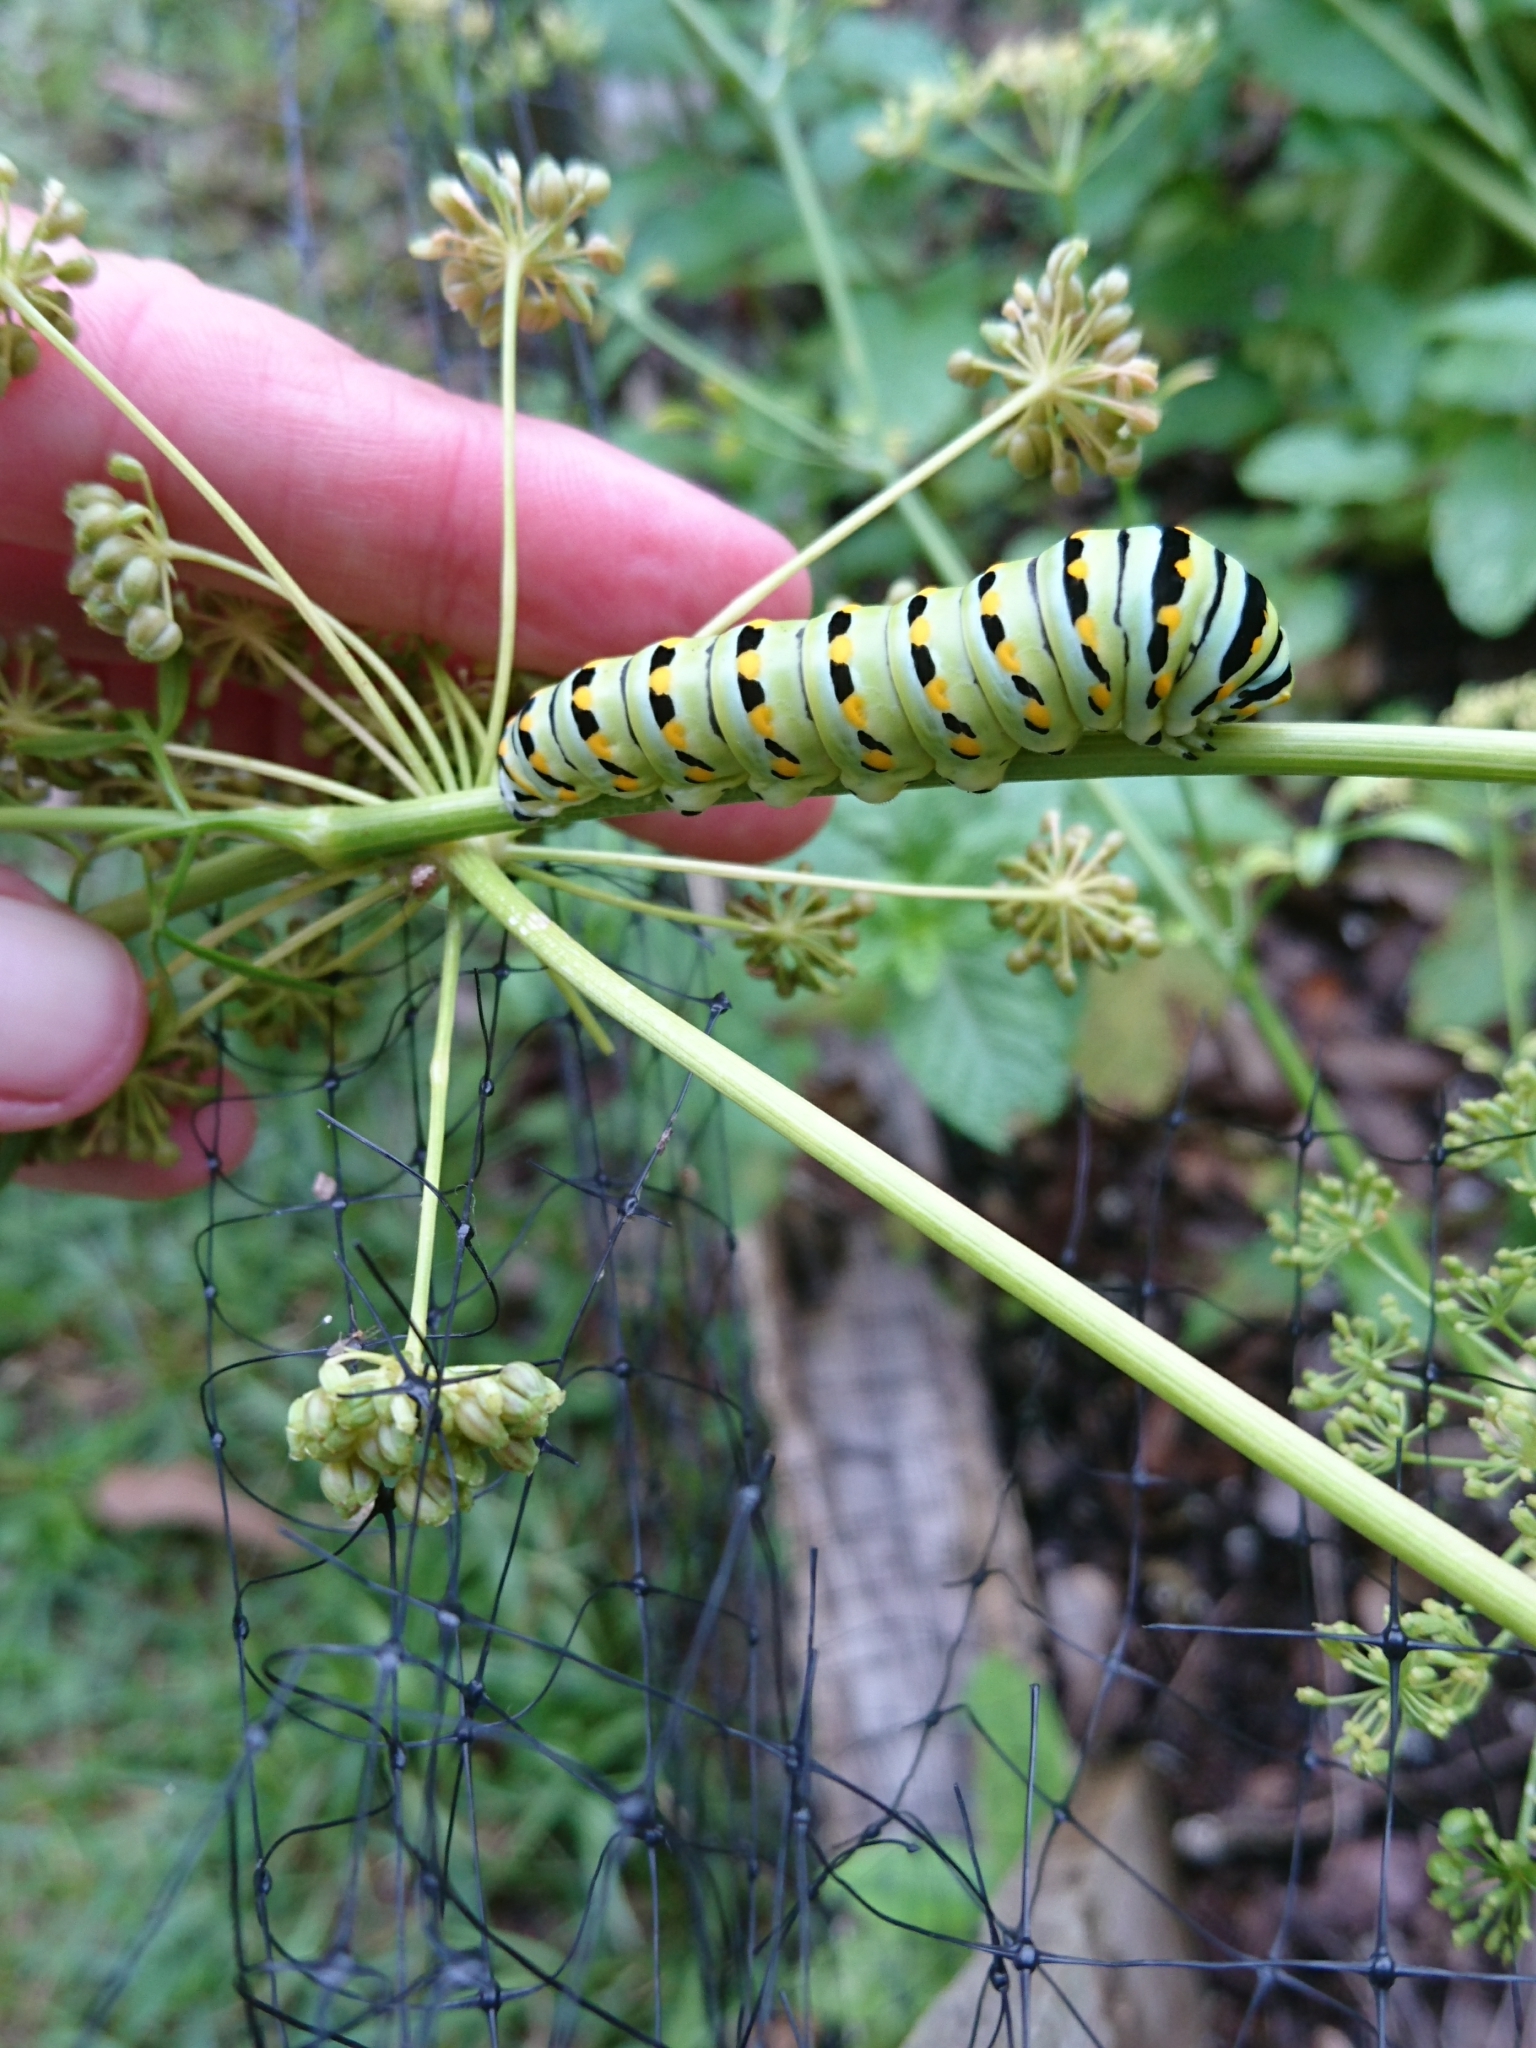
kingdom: Animalia
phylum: Arthropoda
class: Insecta
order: Lepidoptera
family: Papilionidae
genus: Papilio
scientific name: Papilio polyxenes
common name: Black swallowtail
